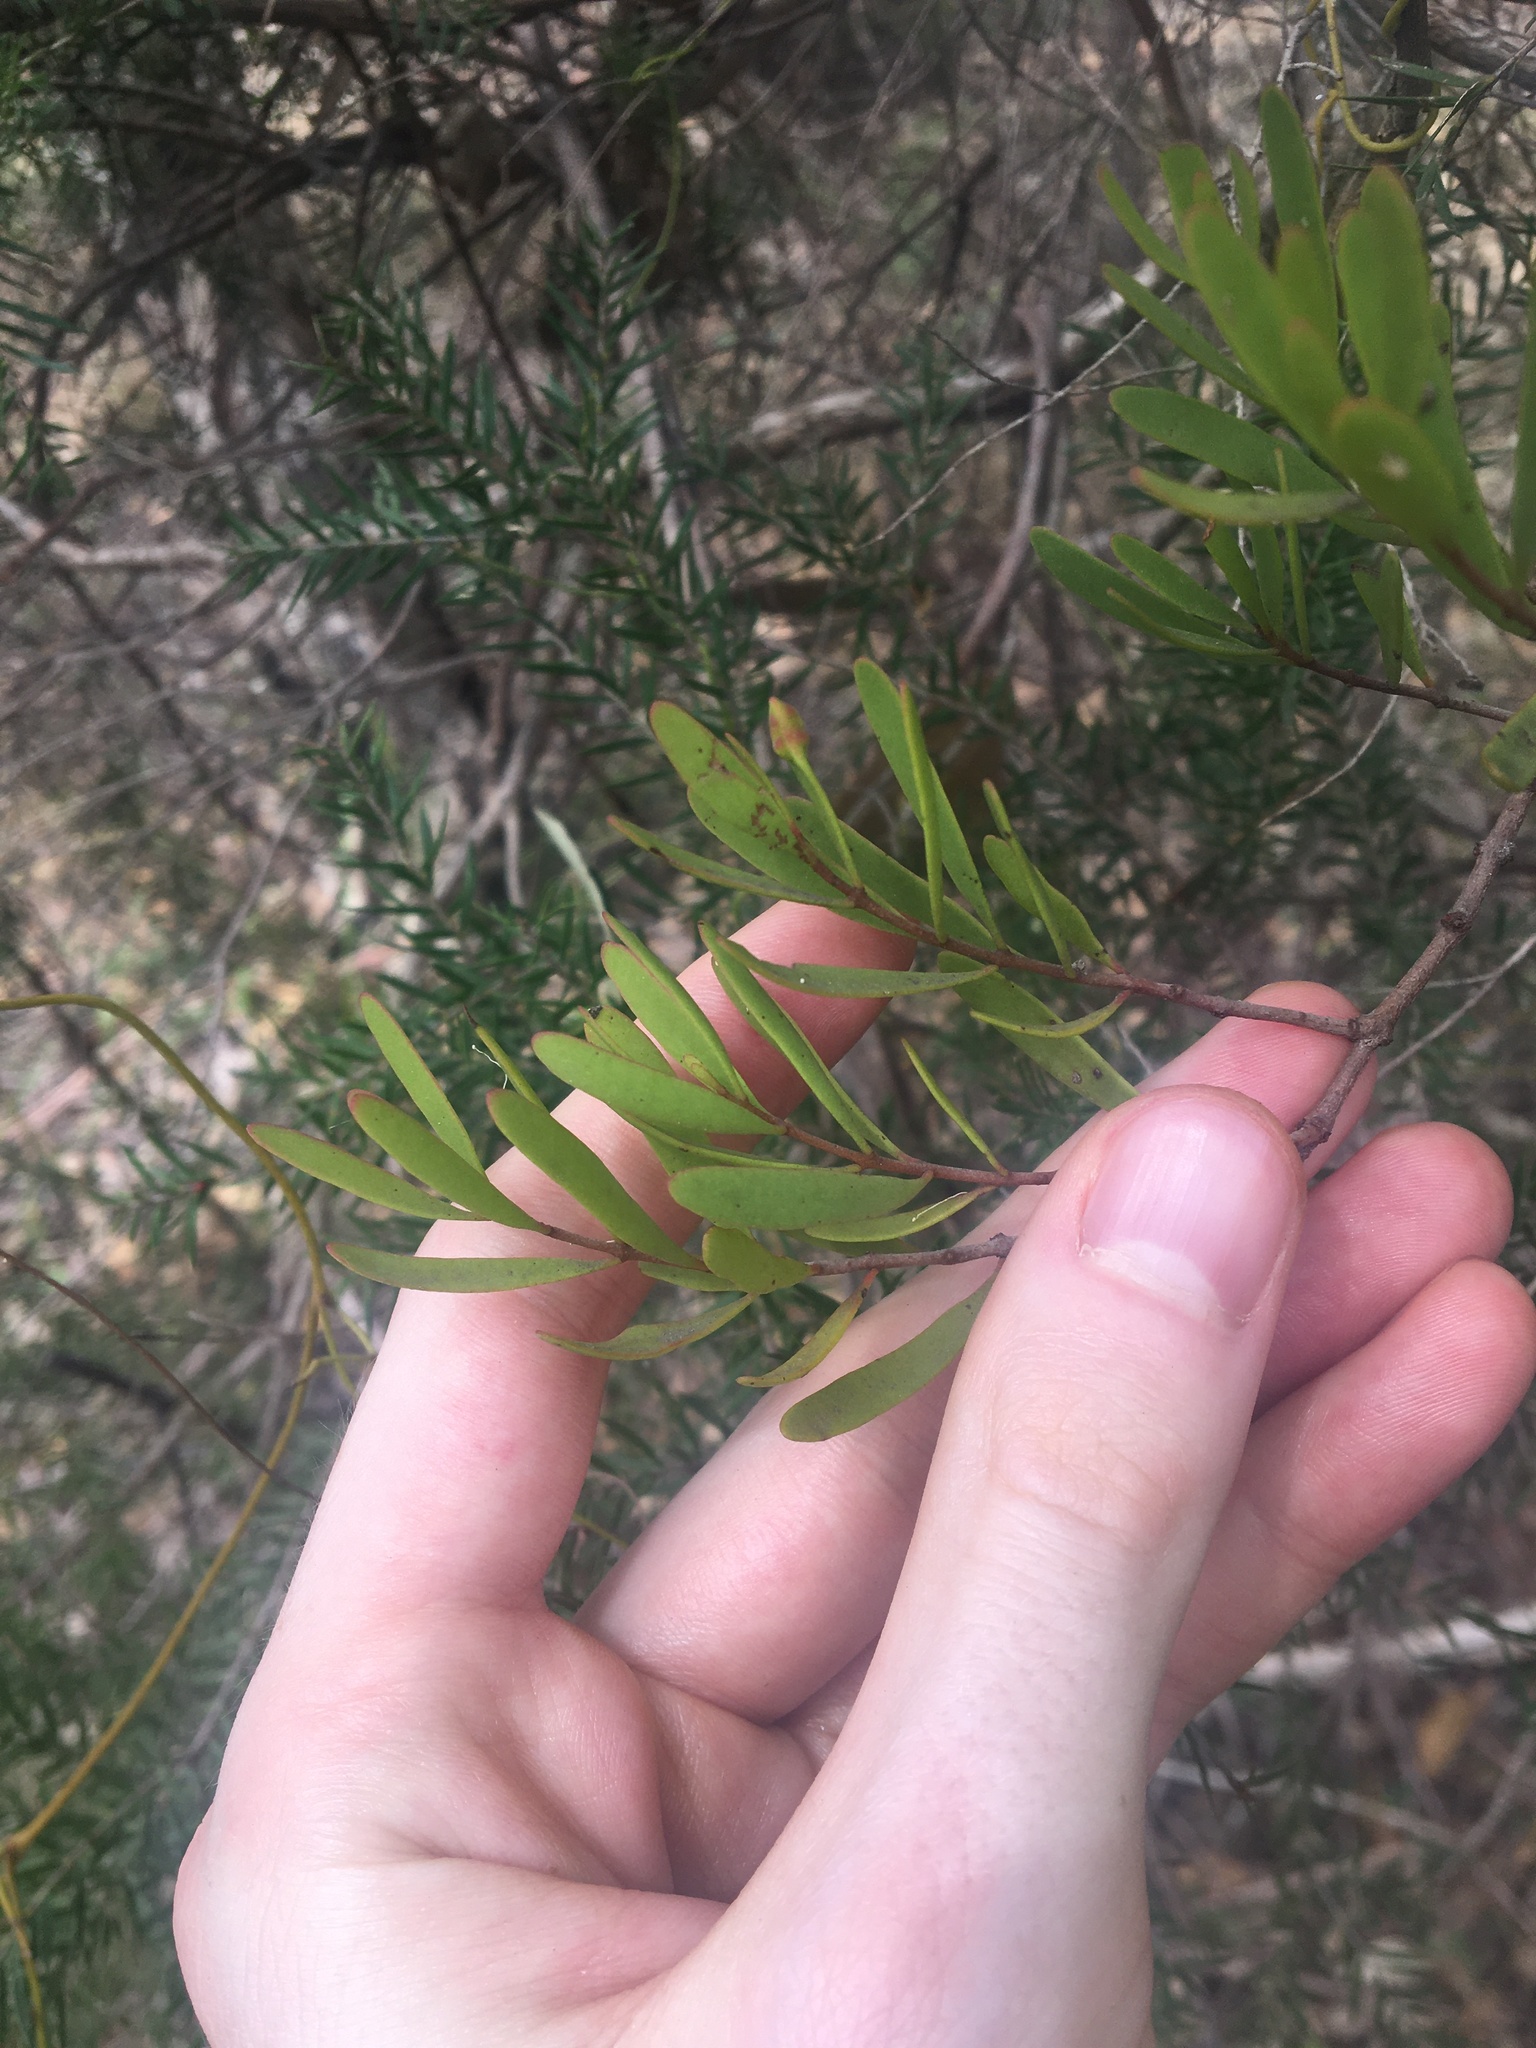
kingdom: Plantae
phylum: Tracheophyta
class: Magnoliopsida
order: Santalales
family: Loranthaceae
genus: Amyema
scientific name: Amyema gaudichaudii
